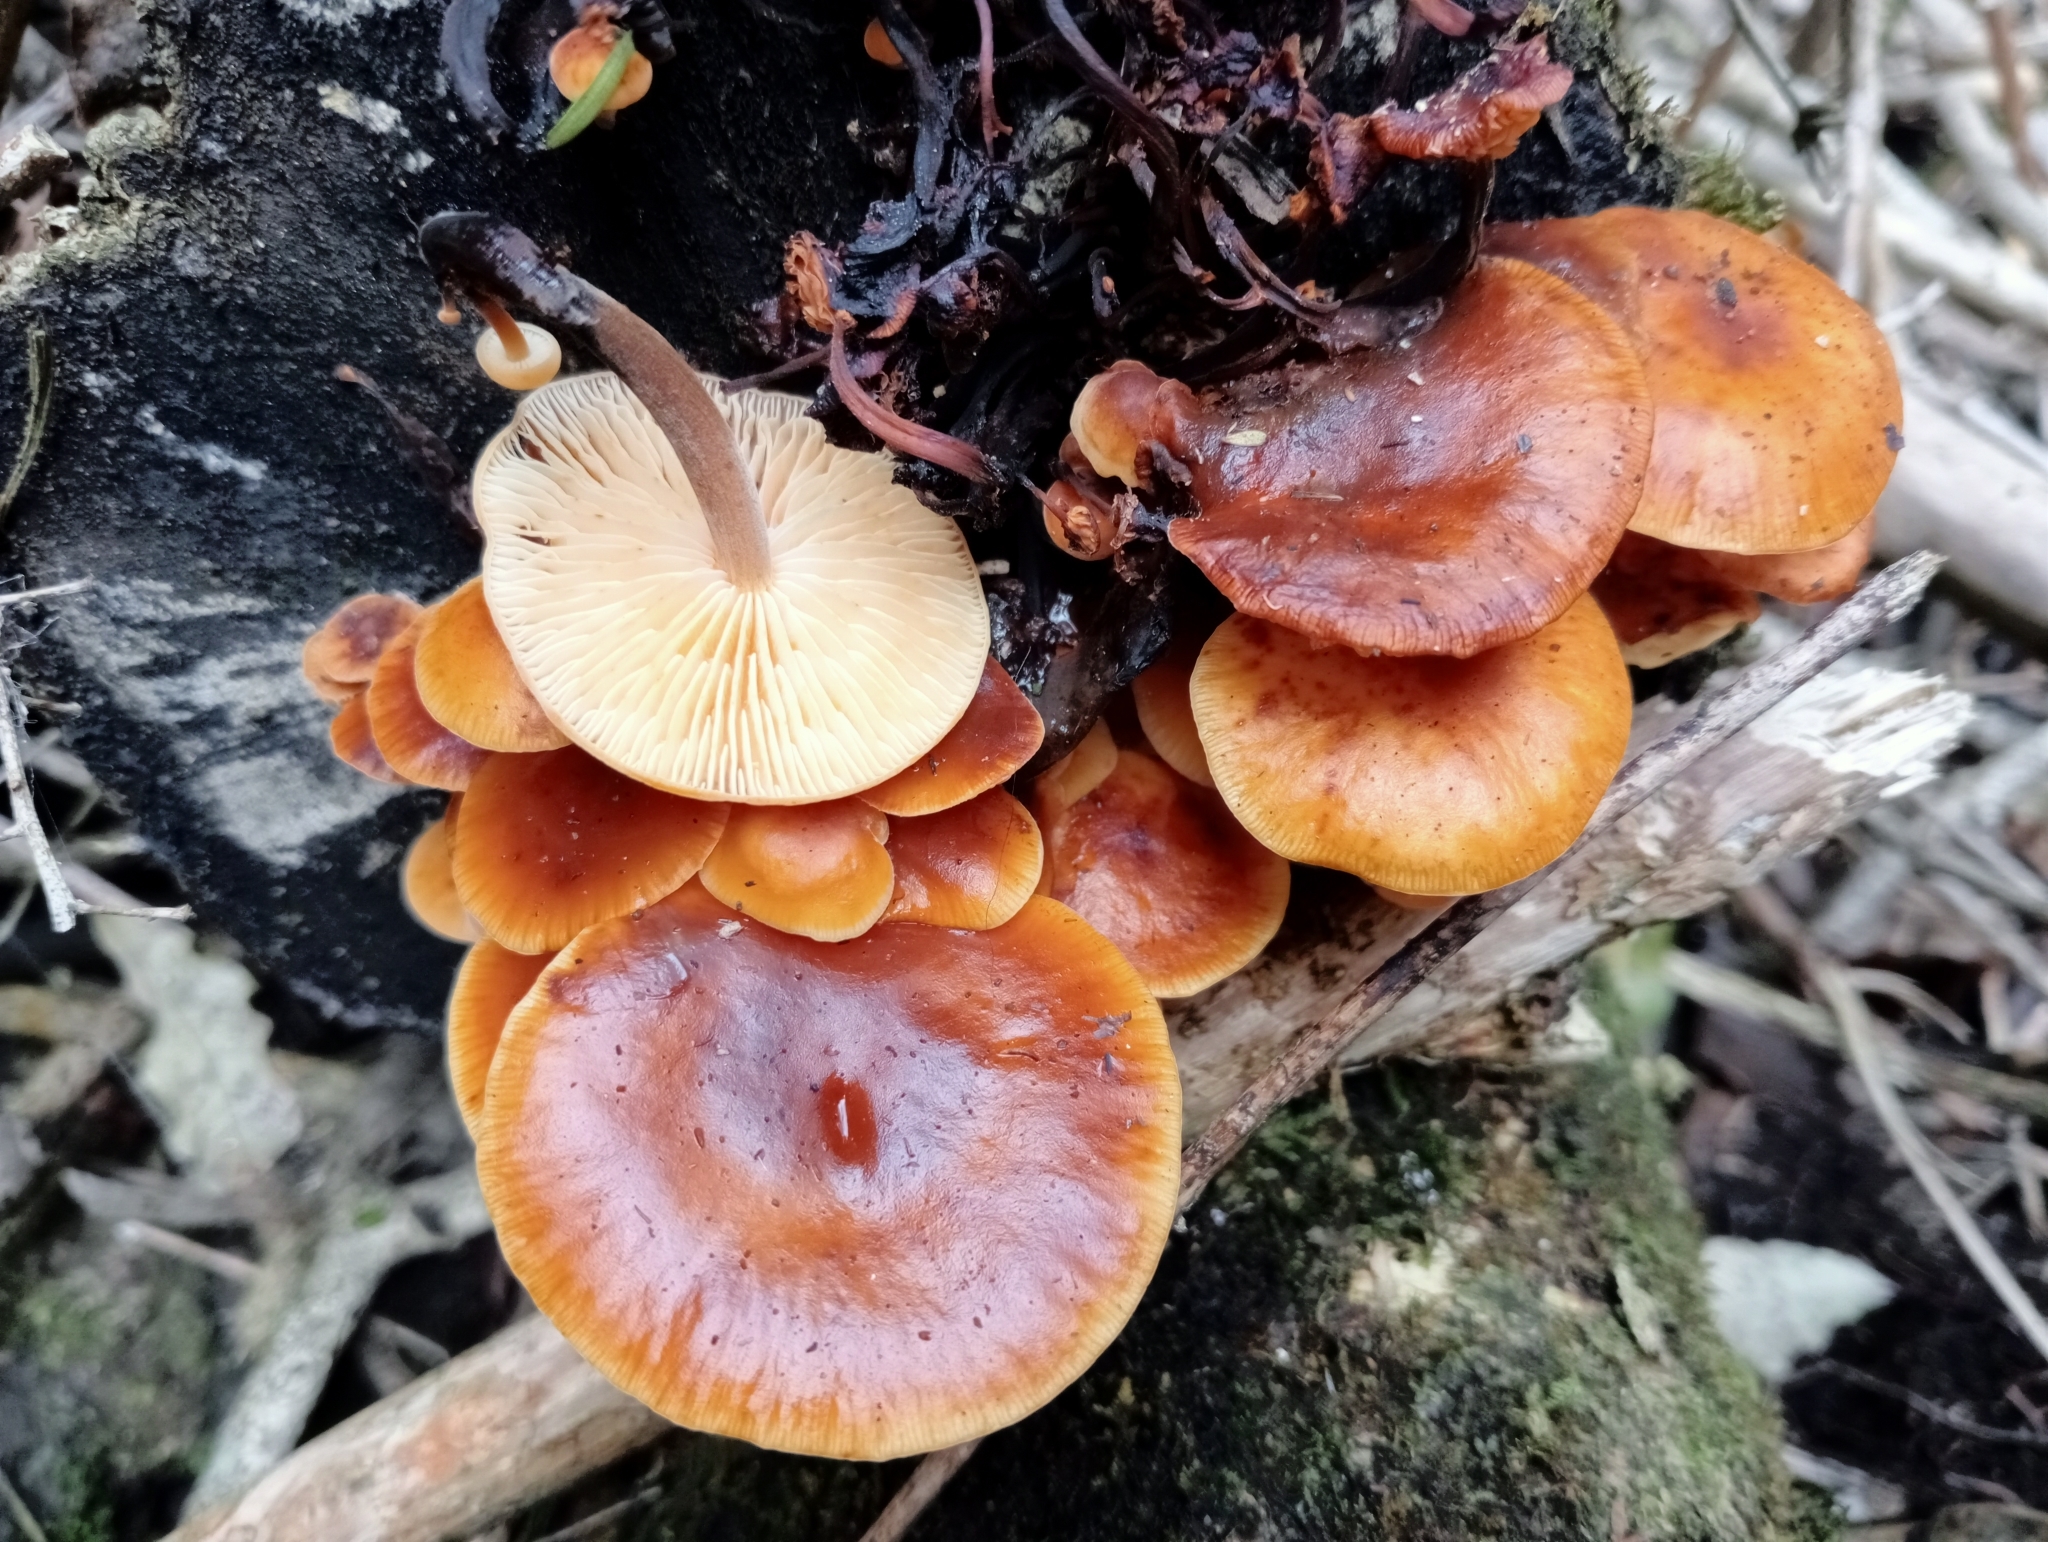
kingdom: Fungi
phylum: Basidiomycota
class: Agaricomycetes
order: Agaricales
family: Physalacriaceae
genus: Flammulina
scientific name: Flammulina velutipes
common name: Velvet shank
